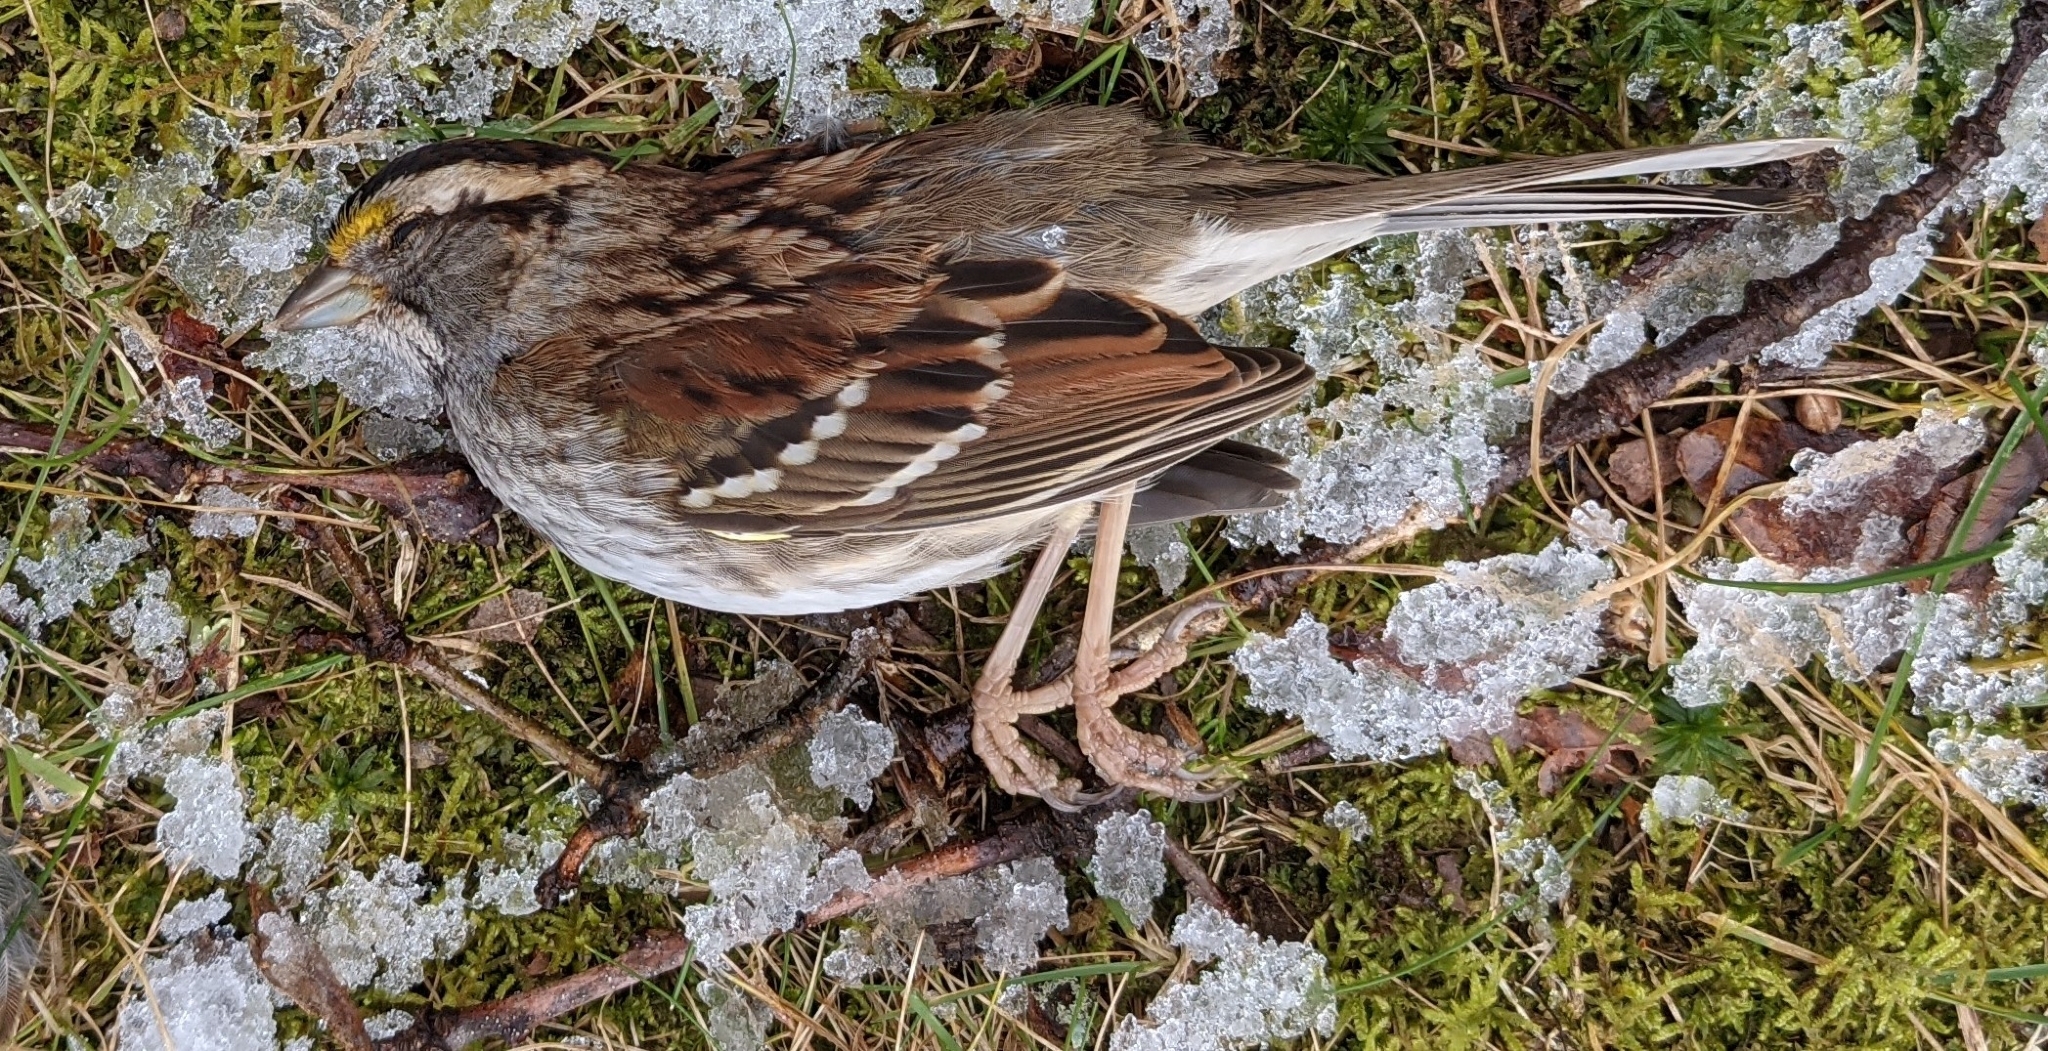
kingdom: Animalia
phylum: Chordata
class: Aves
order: Passeriformes
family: Passerellidae
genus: Zonotrichia
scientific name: Zonotrichia albicollis
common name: White-throated sparrow
